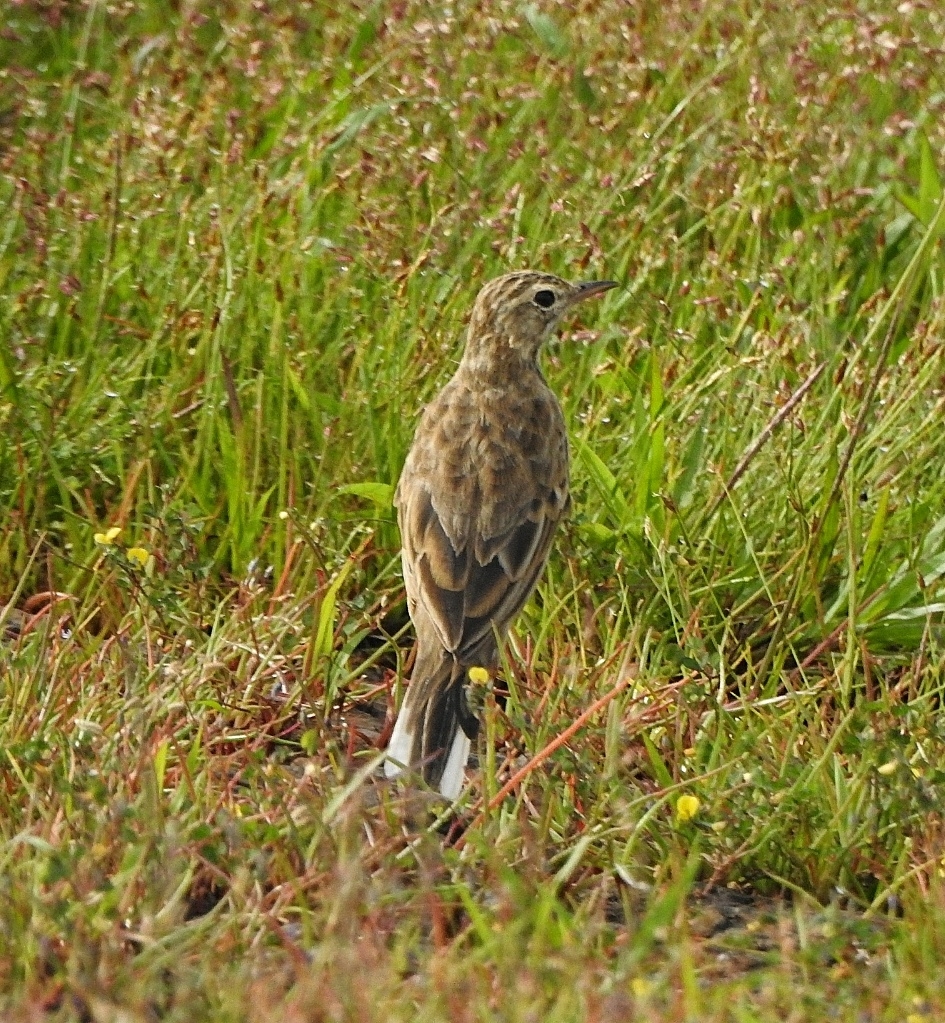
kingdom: Animalia
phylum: Chordata
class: Aves
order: Passeriformes
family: Motacillidae
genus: Anthus
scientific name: Anthus rufulus
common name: Paddyfield pipit
